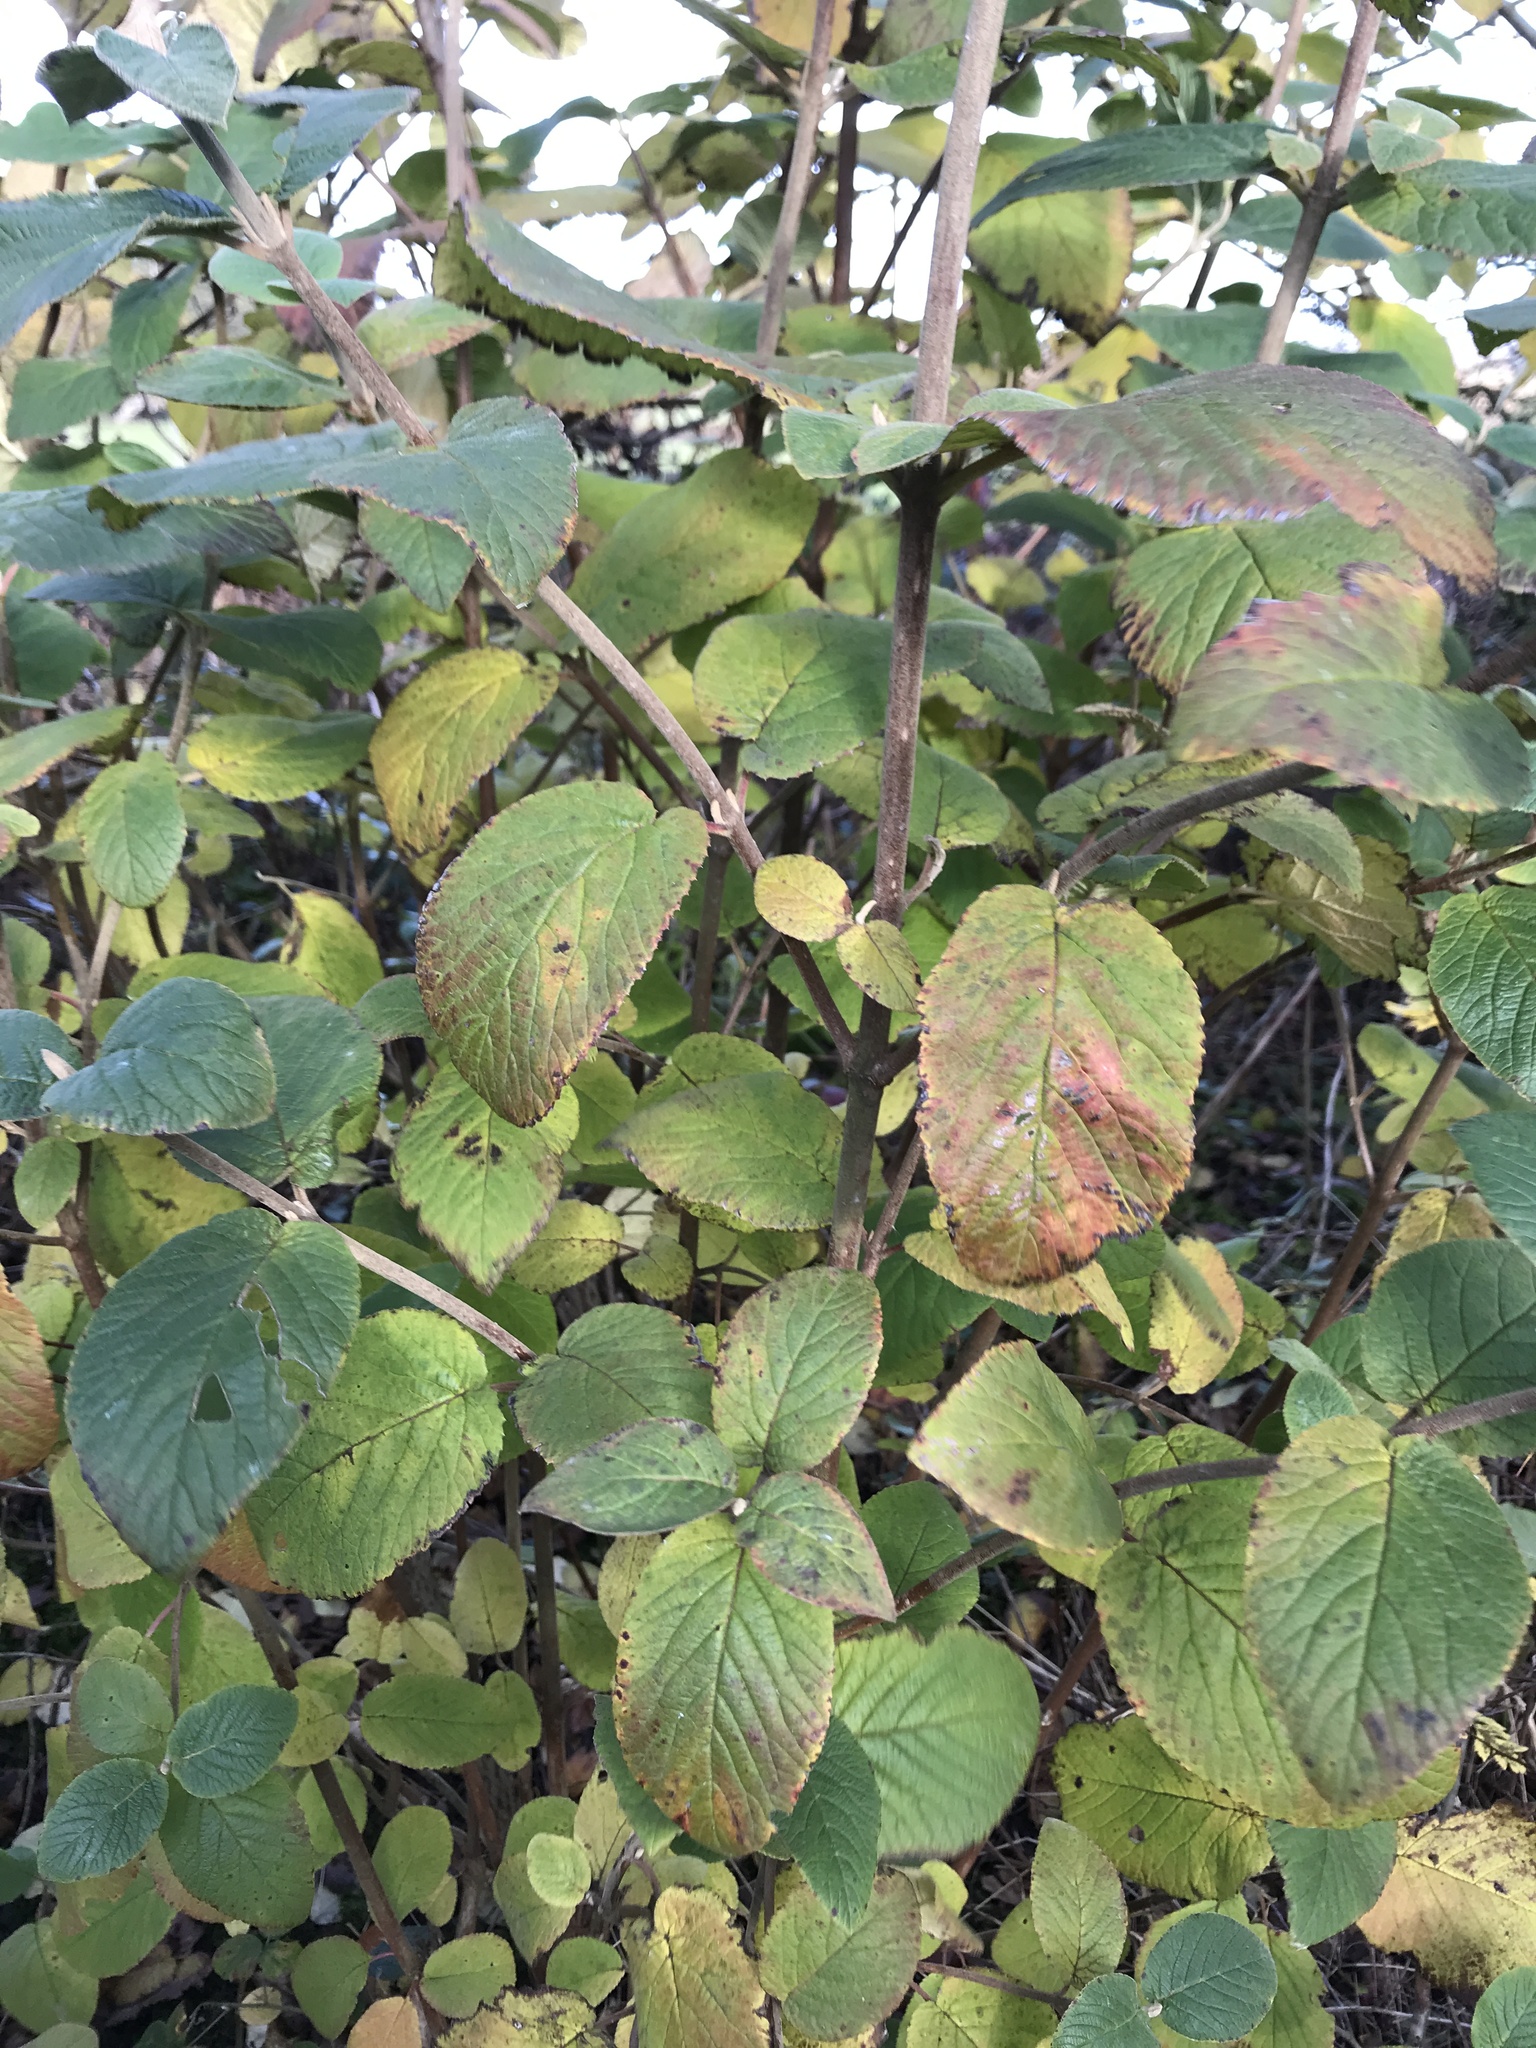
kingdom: Plantae
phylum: Tracheophyta
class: Magnoliopsida
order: Dipsacales
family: Viburnaceae
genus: Viburnum
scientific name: Viburnum lantana
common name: Wayfaring tree
